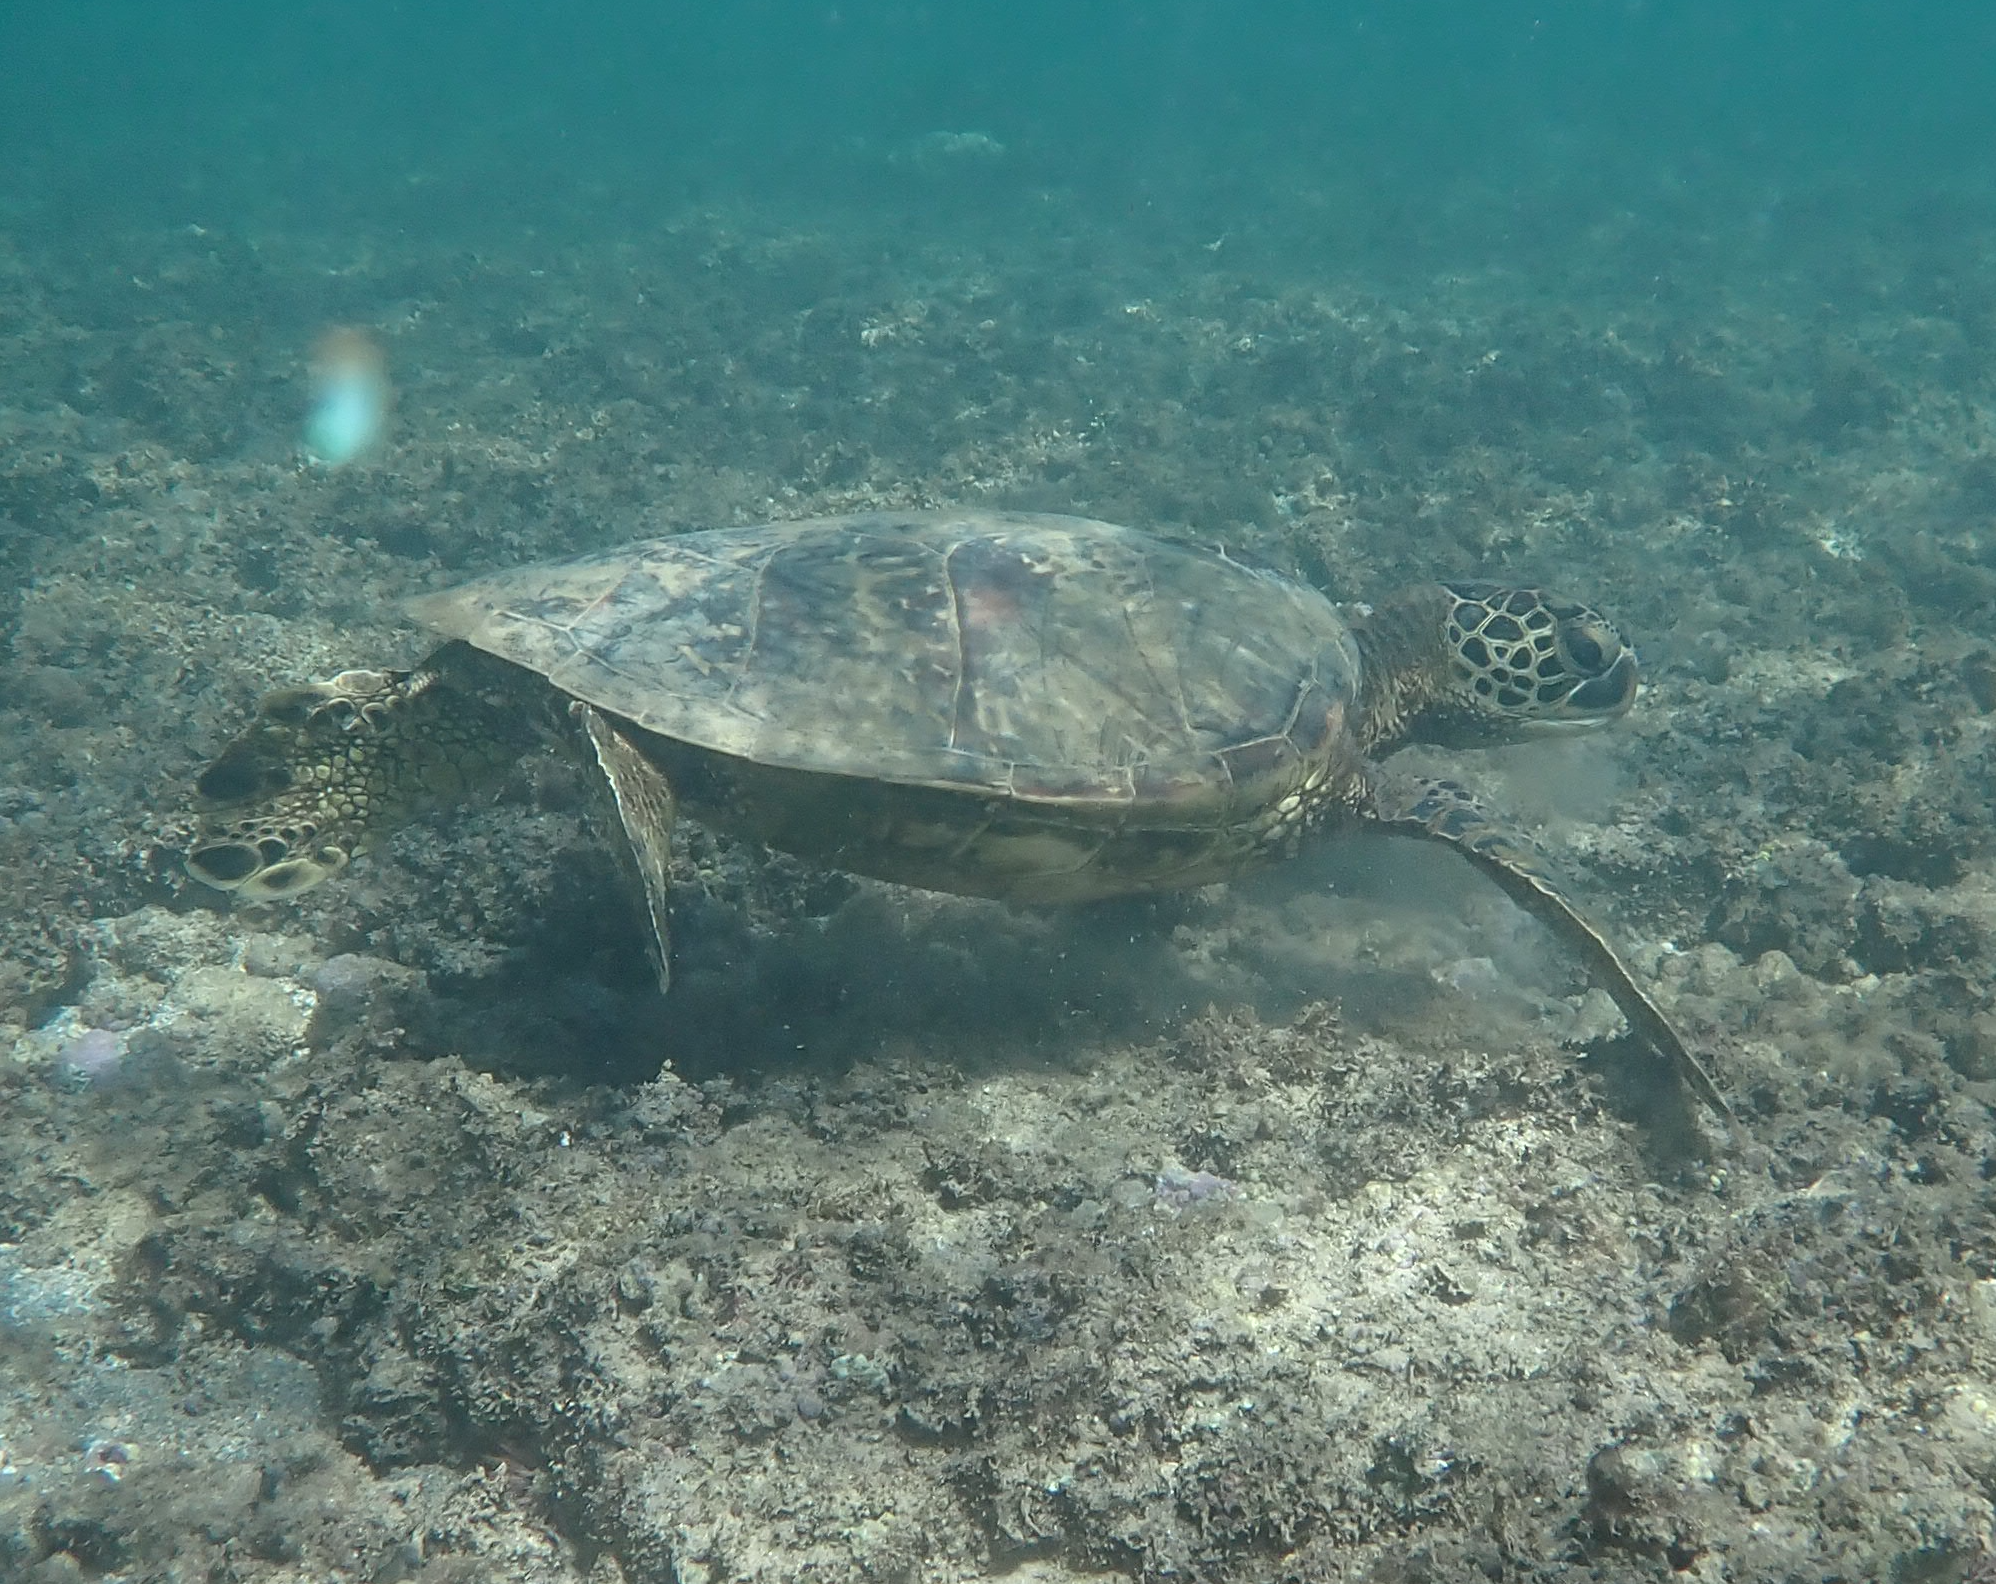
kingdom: Animalia
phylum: Chordata
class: Testudines
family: Cheloniidae
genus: Chelonia
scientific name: Chelonia mydas
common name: Green turtle
